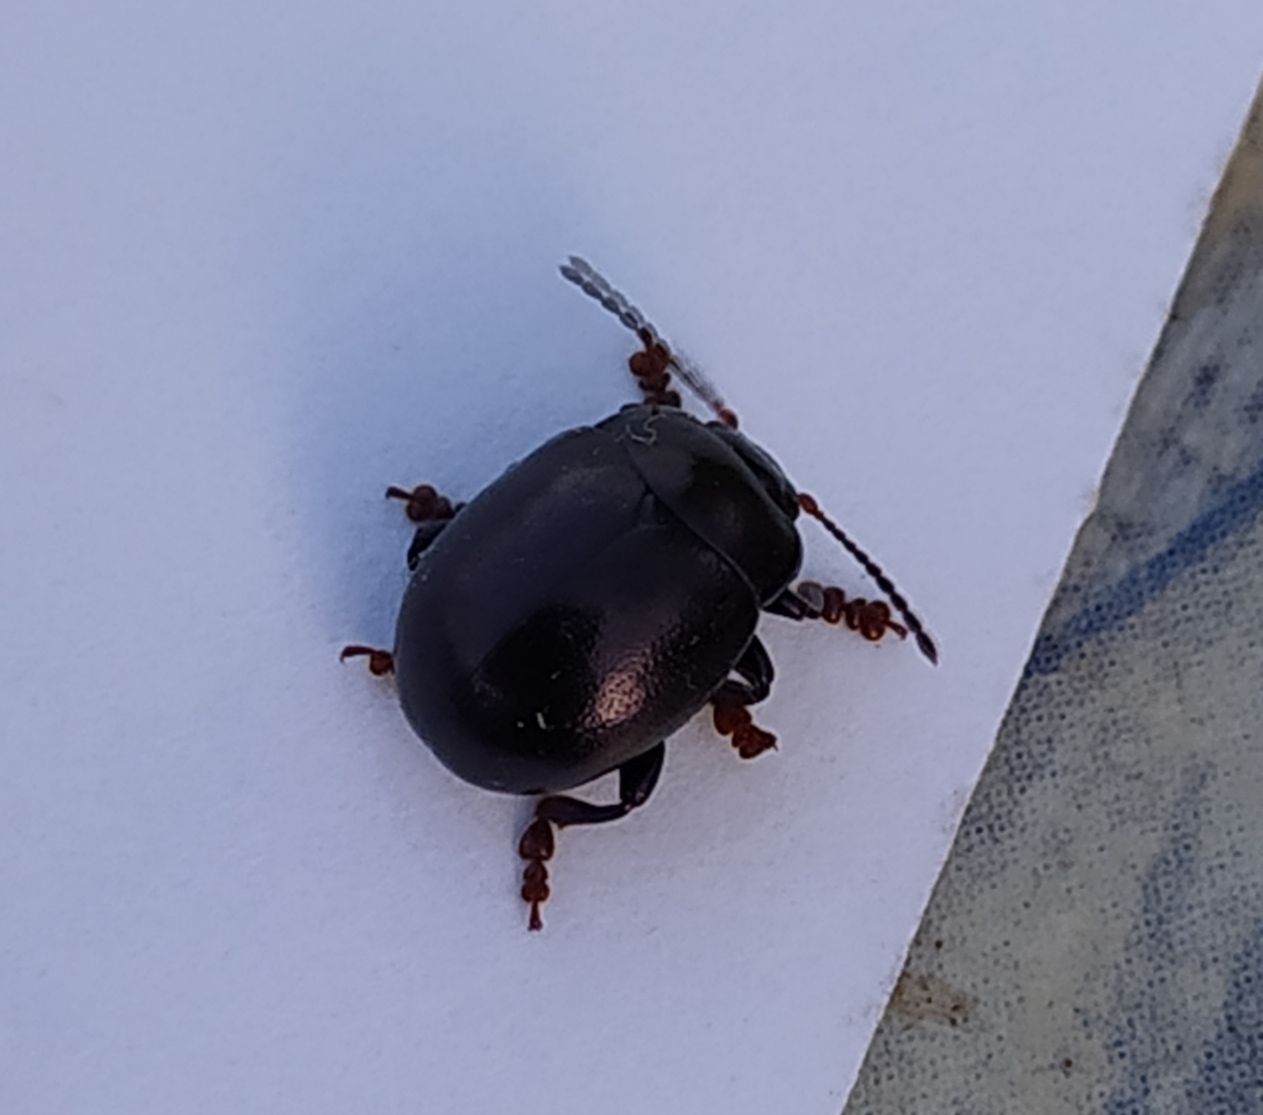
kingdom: Animalia
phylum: Arthropoda
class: Insecta
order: Coleoptera
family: Chrysomelidae
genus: Chrysolina
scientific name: Chrysolina sturmi
